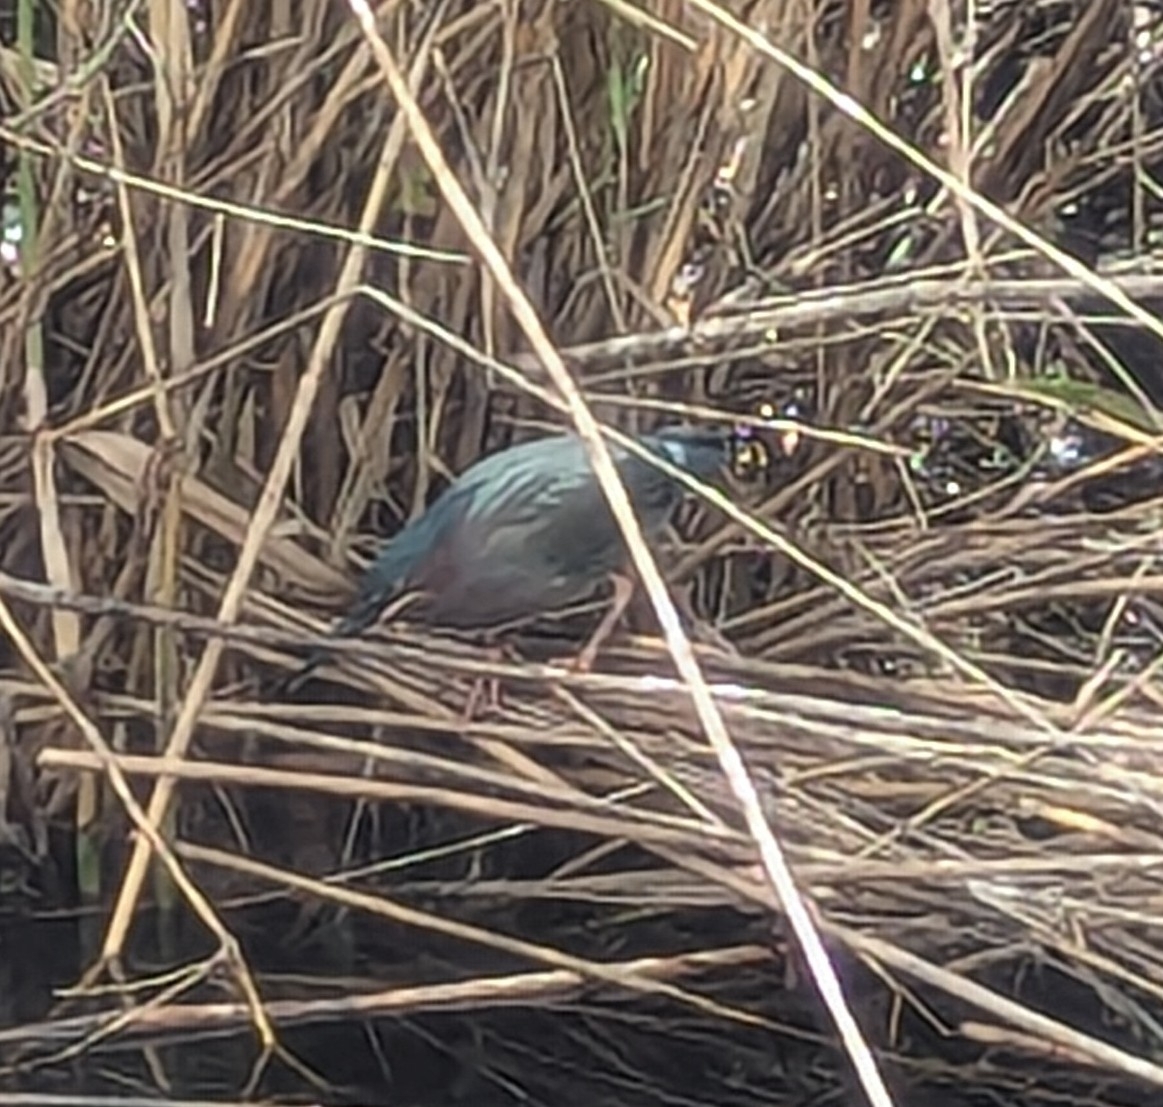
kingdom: Animalia
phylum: Chordata
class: Aves
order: Pelecaniformes
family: Ardeidae
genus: Butorides
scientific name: Butorides virescens
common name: Green heron
